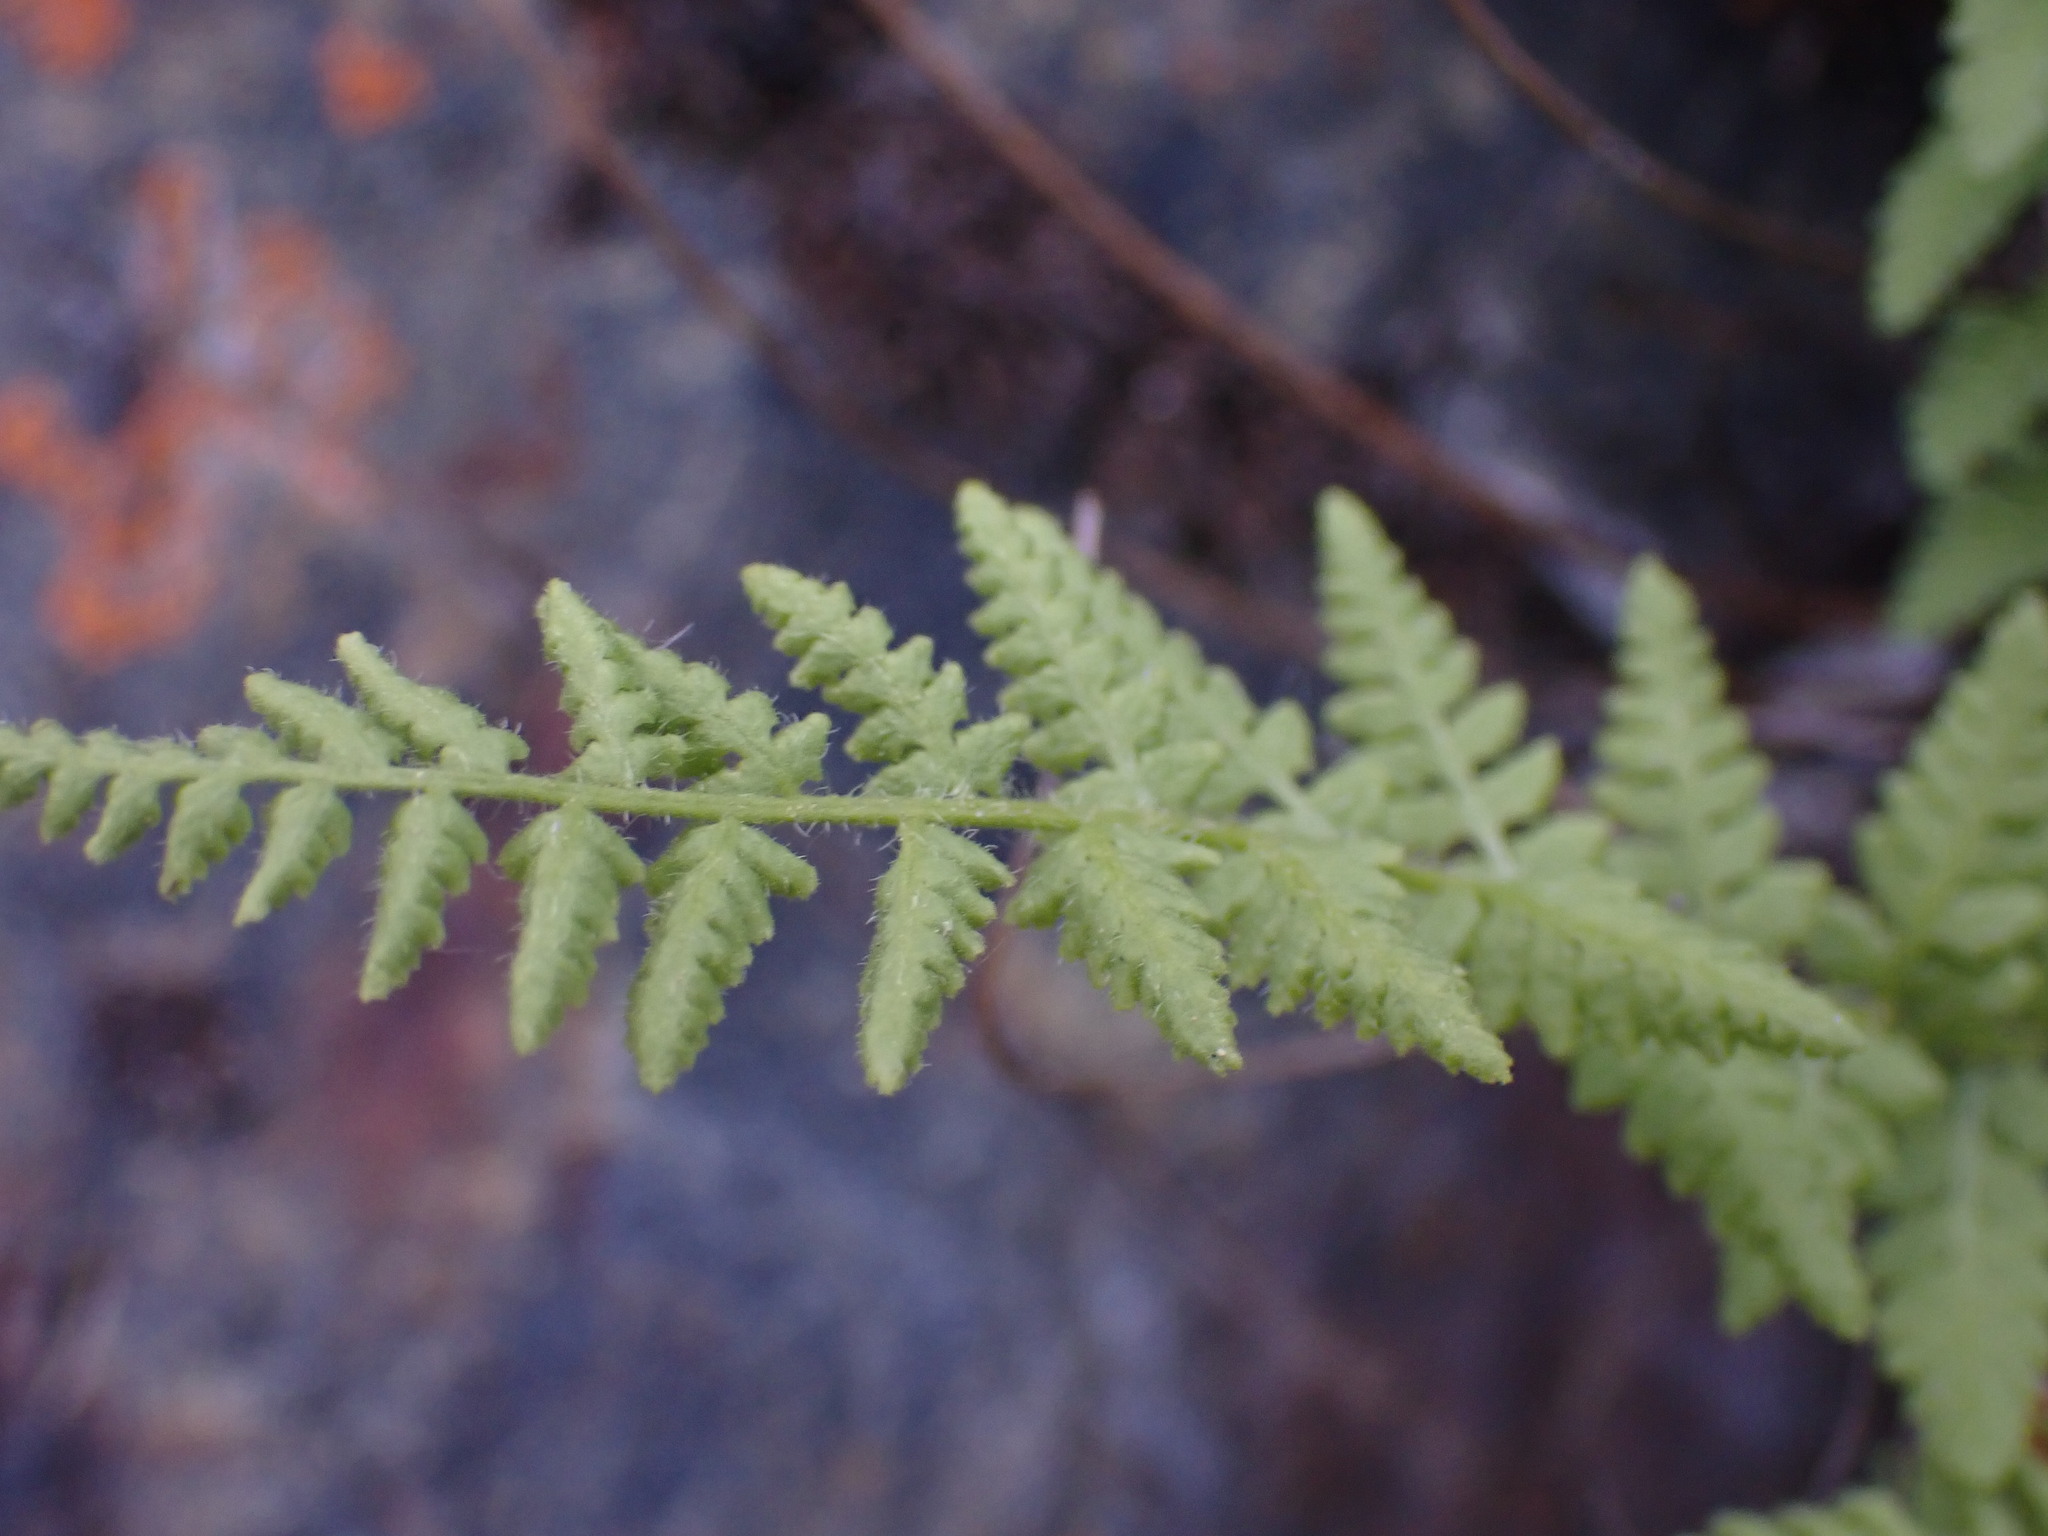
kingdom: Plantae
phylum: Tracheophyta
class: Polypodiopsida
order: Polypodiales
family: Woodsiaceae
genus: Physematium
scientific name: Physematium scopulinum
